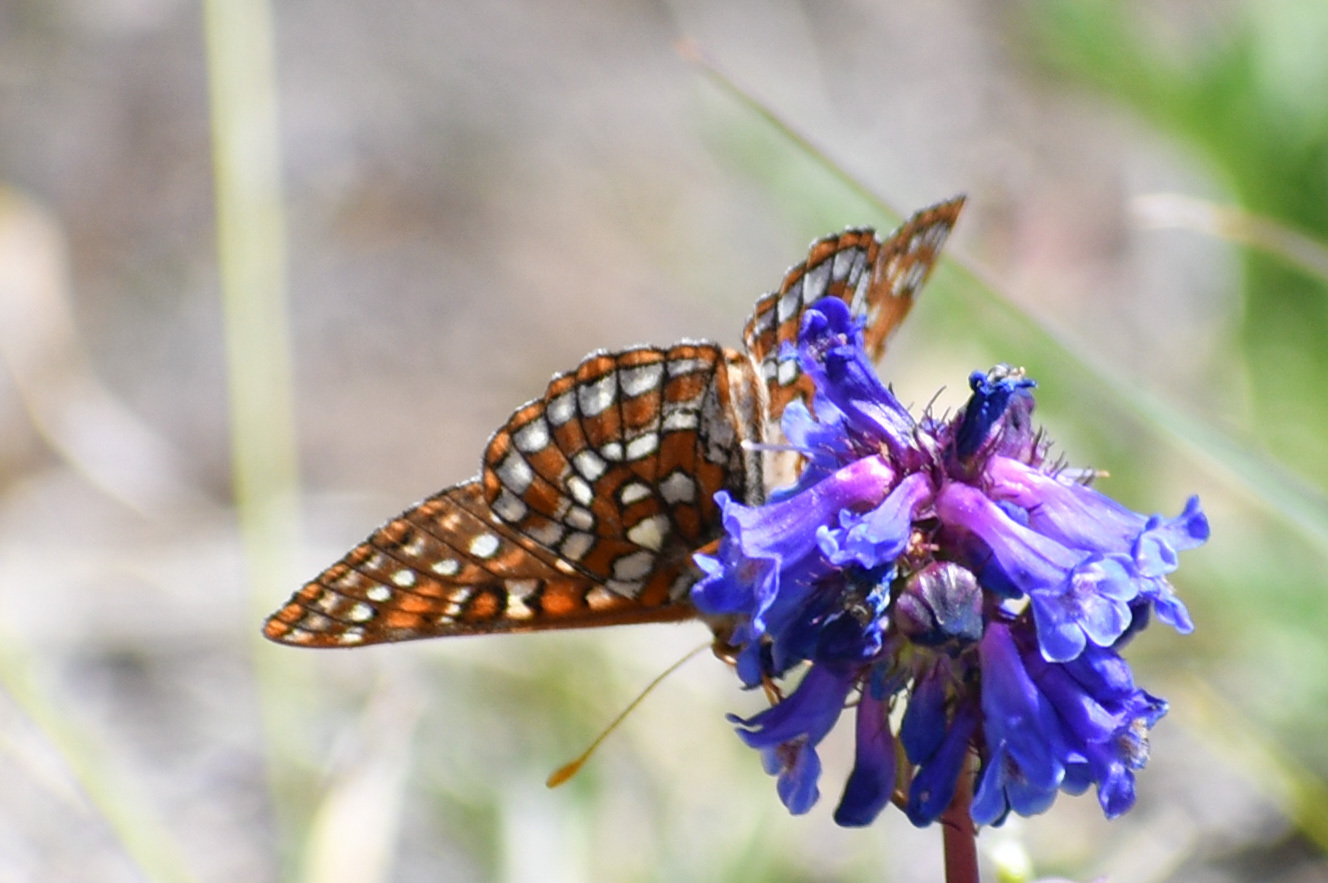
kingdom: Animalia
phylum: Arthropoda
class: Insecta
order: Lepidoptera
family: Nymphalidae
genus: Occidryas
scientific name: Occidryas anicia
